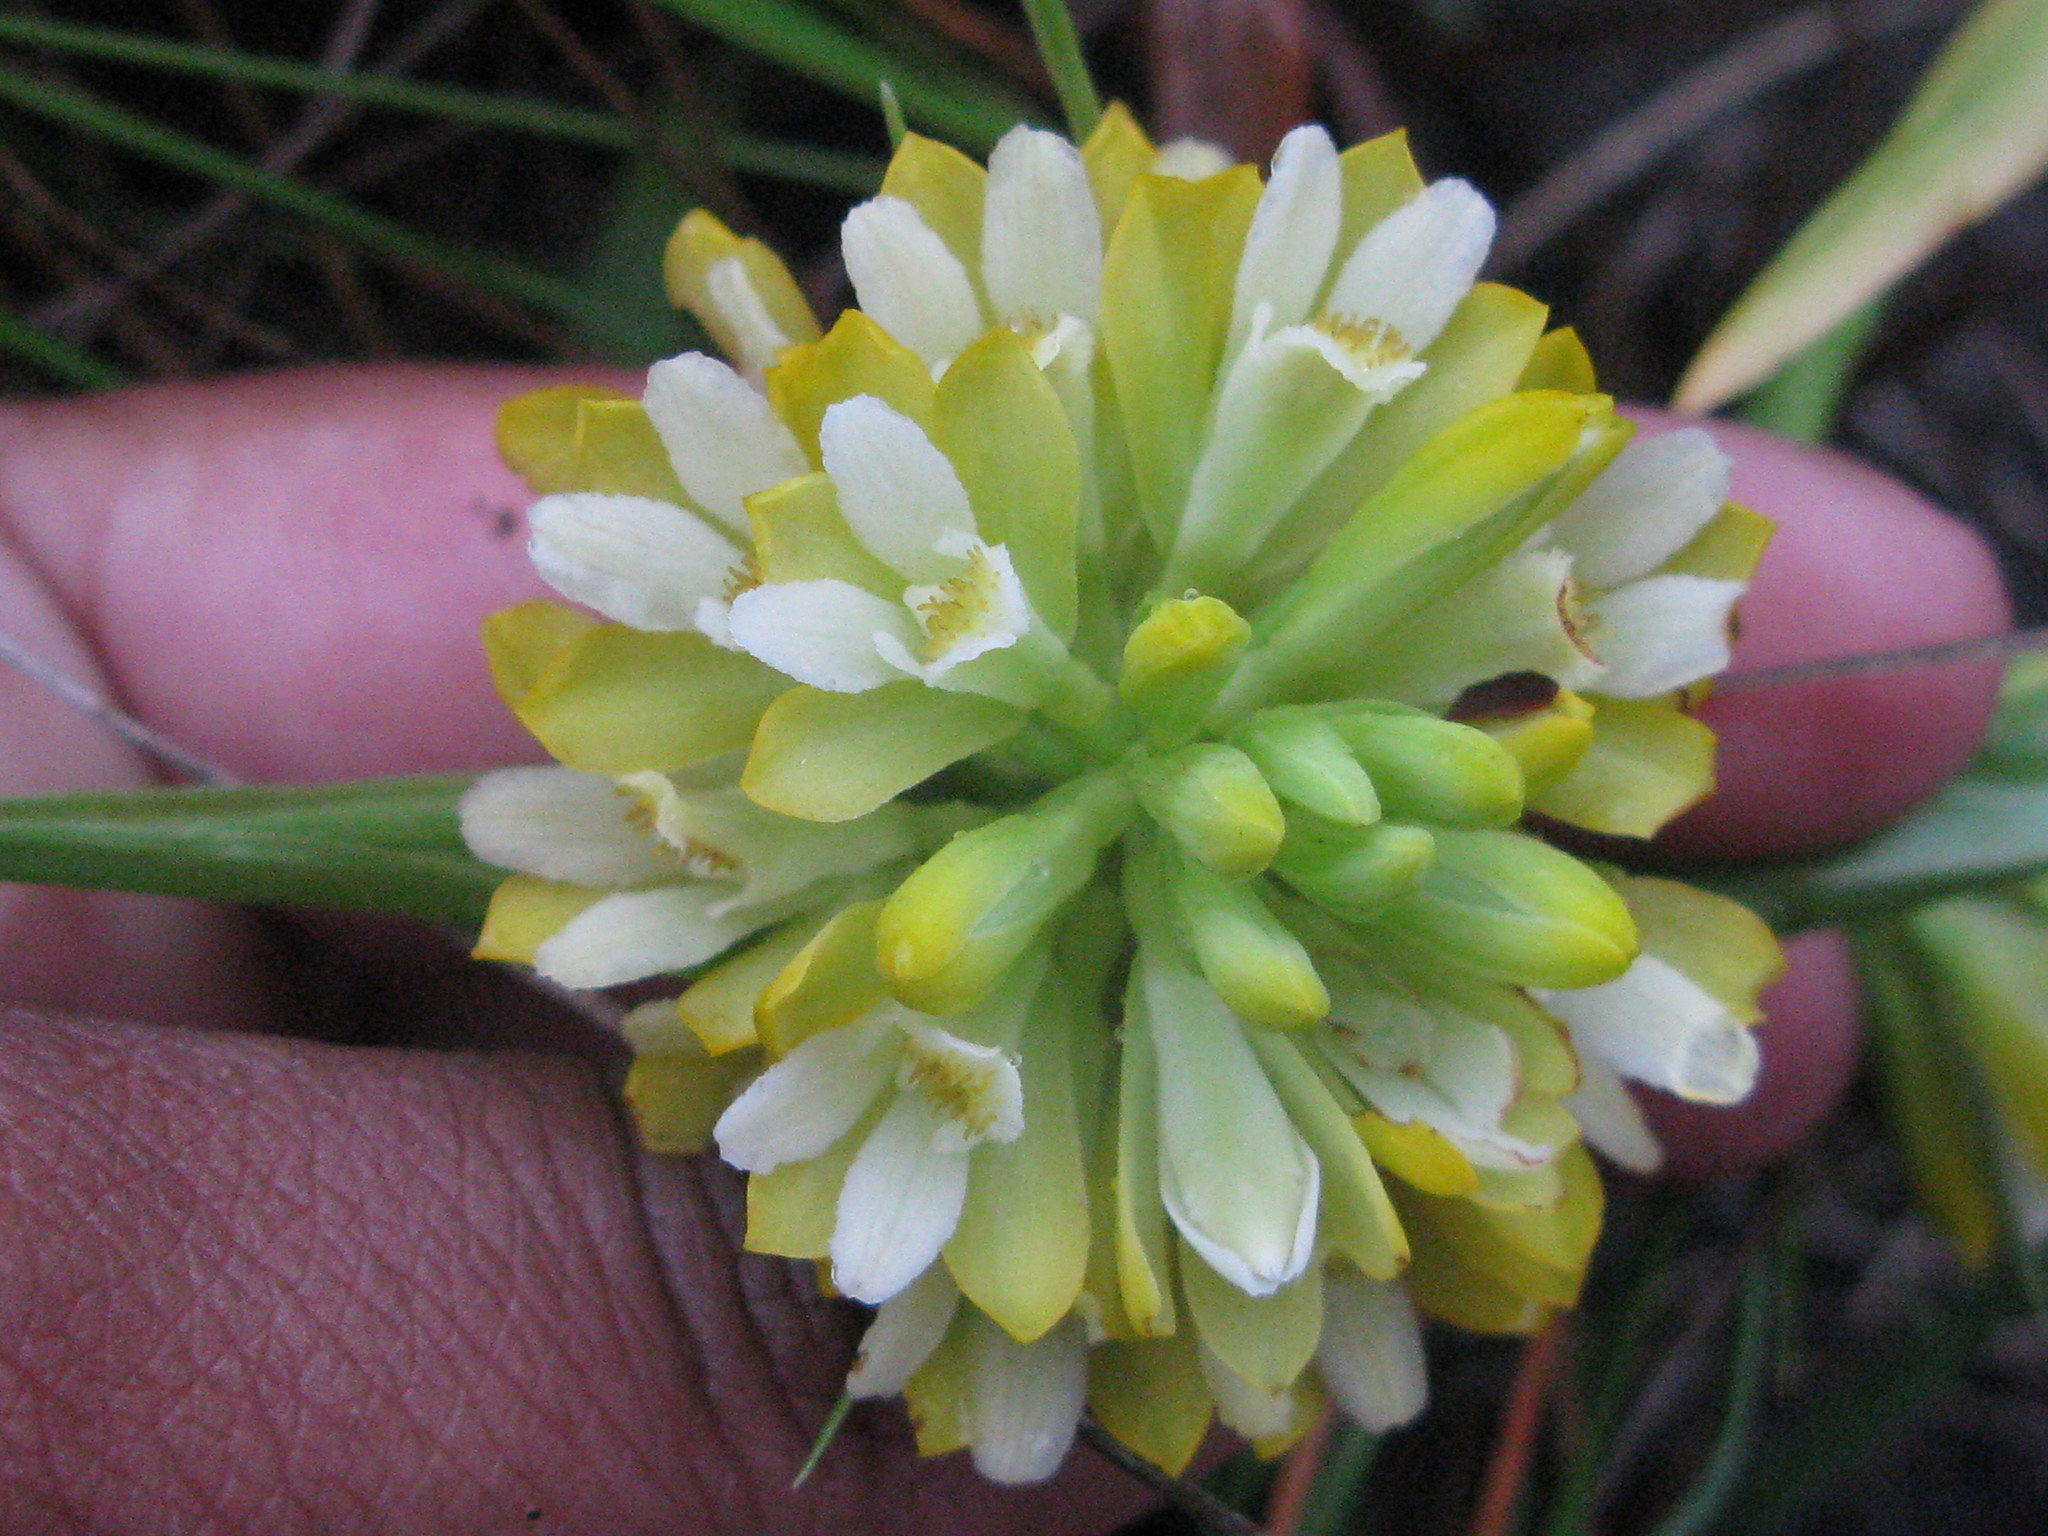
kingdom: Plantae
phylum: Tracheophyta
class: Liliopsida
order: Asparagales
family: Orchidaceae
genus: Eulophia
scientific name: Eulophia leontoglossa
